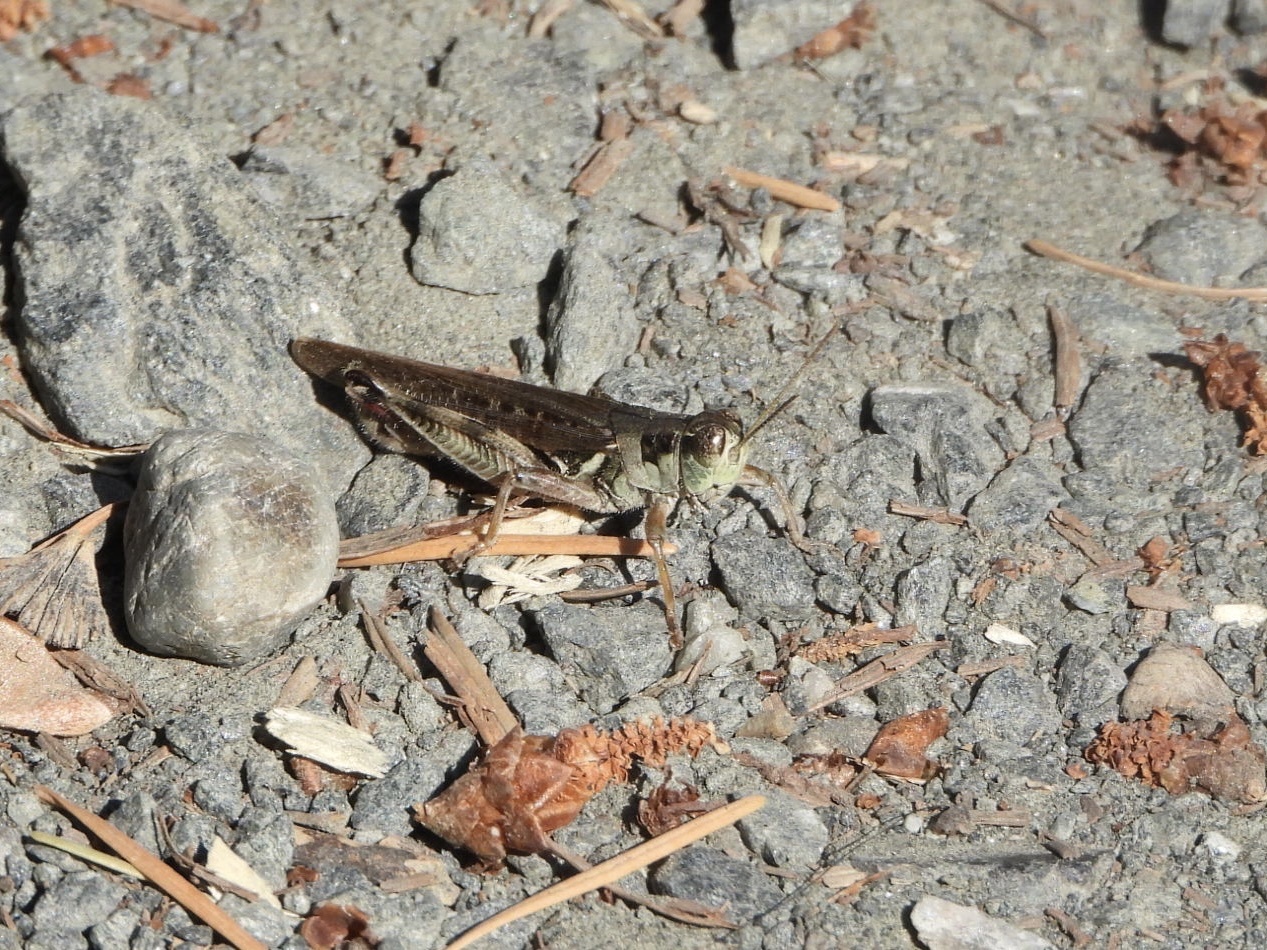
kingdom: Animalia
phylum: Arthropoda
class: Insecta
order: Orthoptera
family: Acrididae
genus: Melanoplus
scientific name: Melanoplus sanguinipes
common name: Migratory grasshopper
